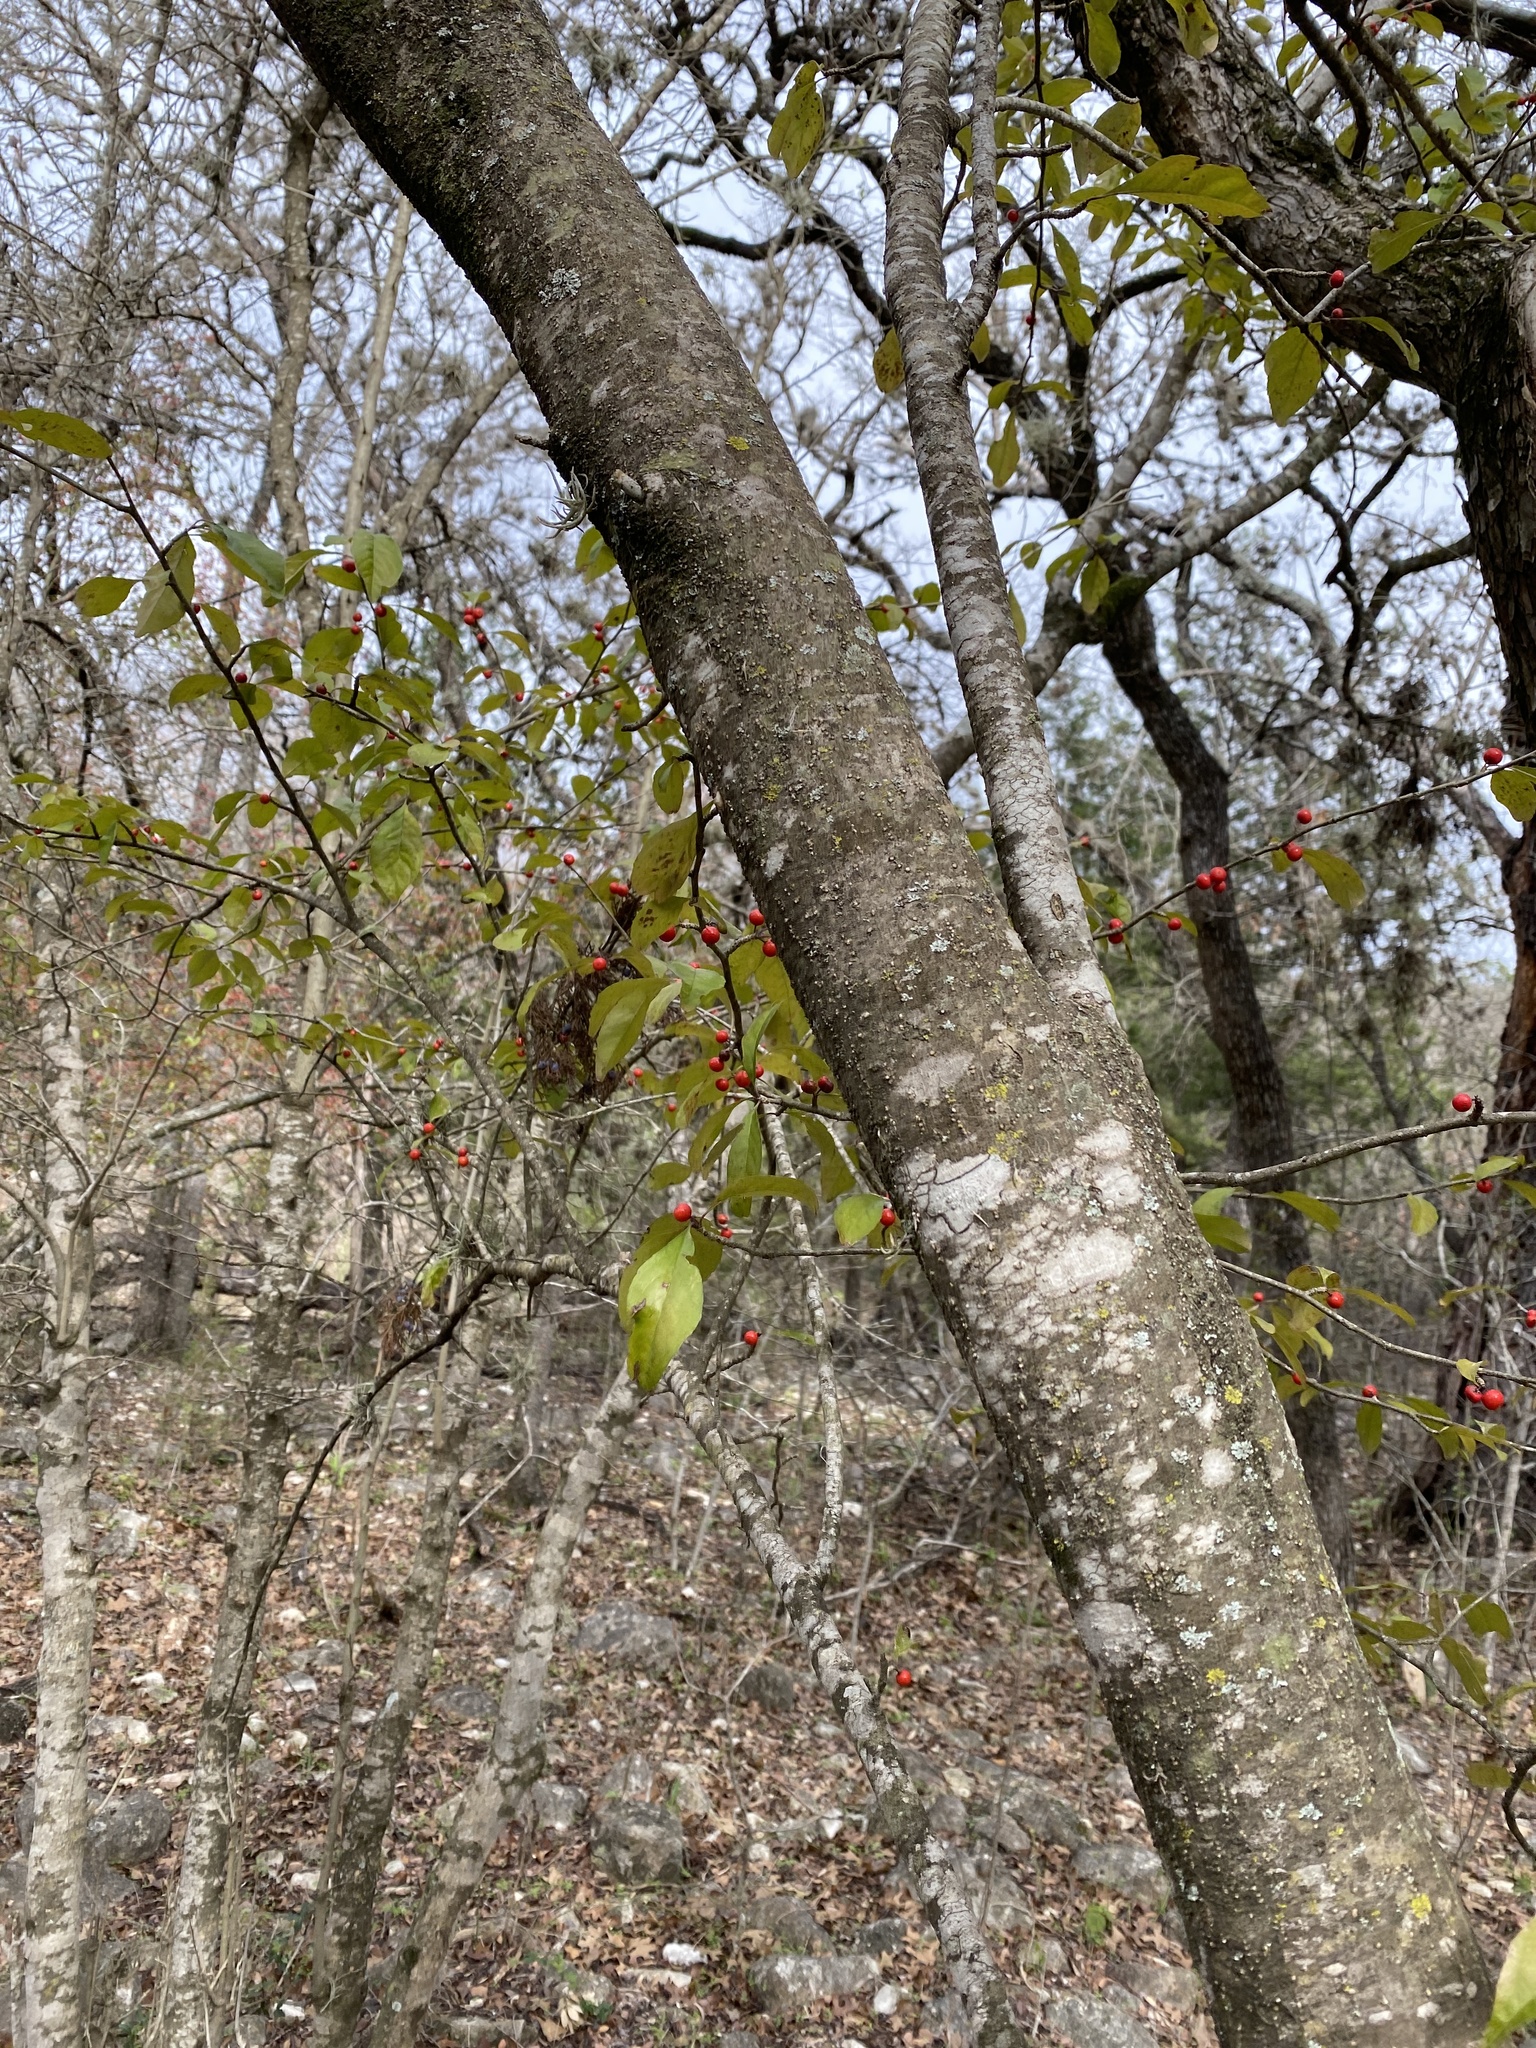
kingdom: Plantae
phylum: Tracheophyta
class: Magnoliopsida
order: Aquifoliales
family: Aquifoliaceae
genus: Ilex
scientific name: Ilex decidua
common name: Possum-haw
